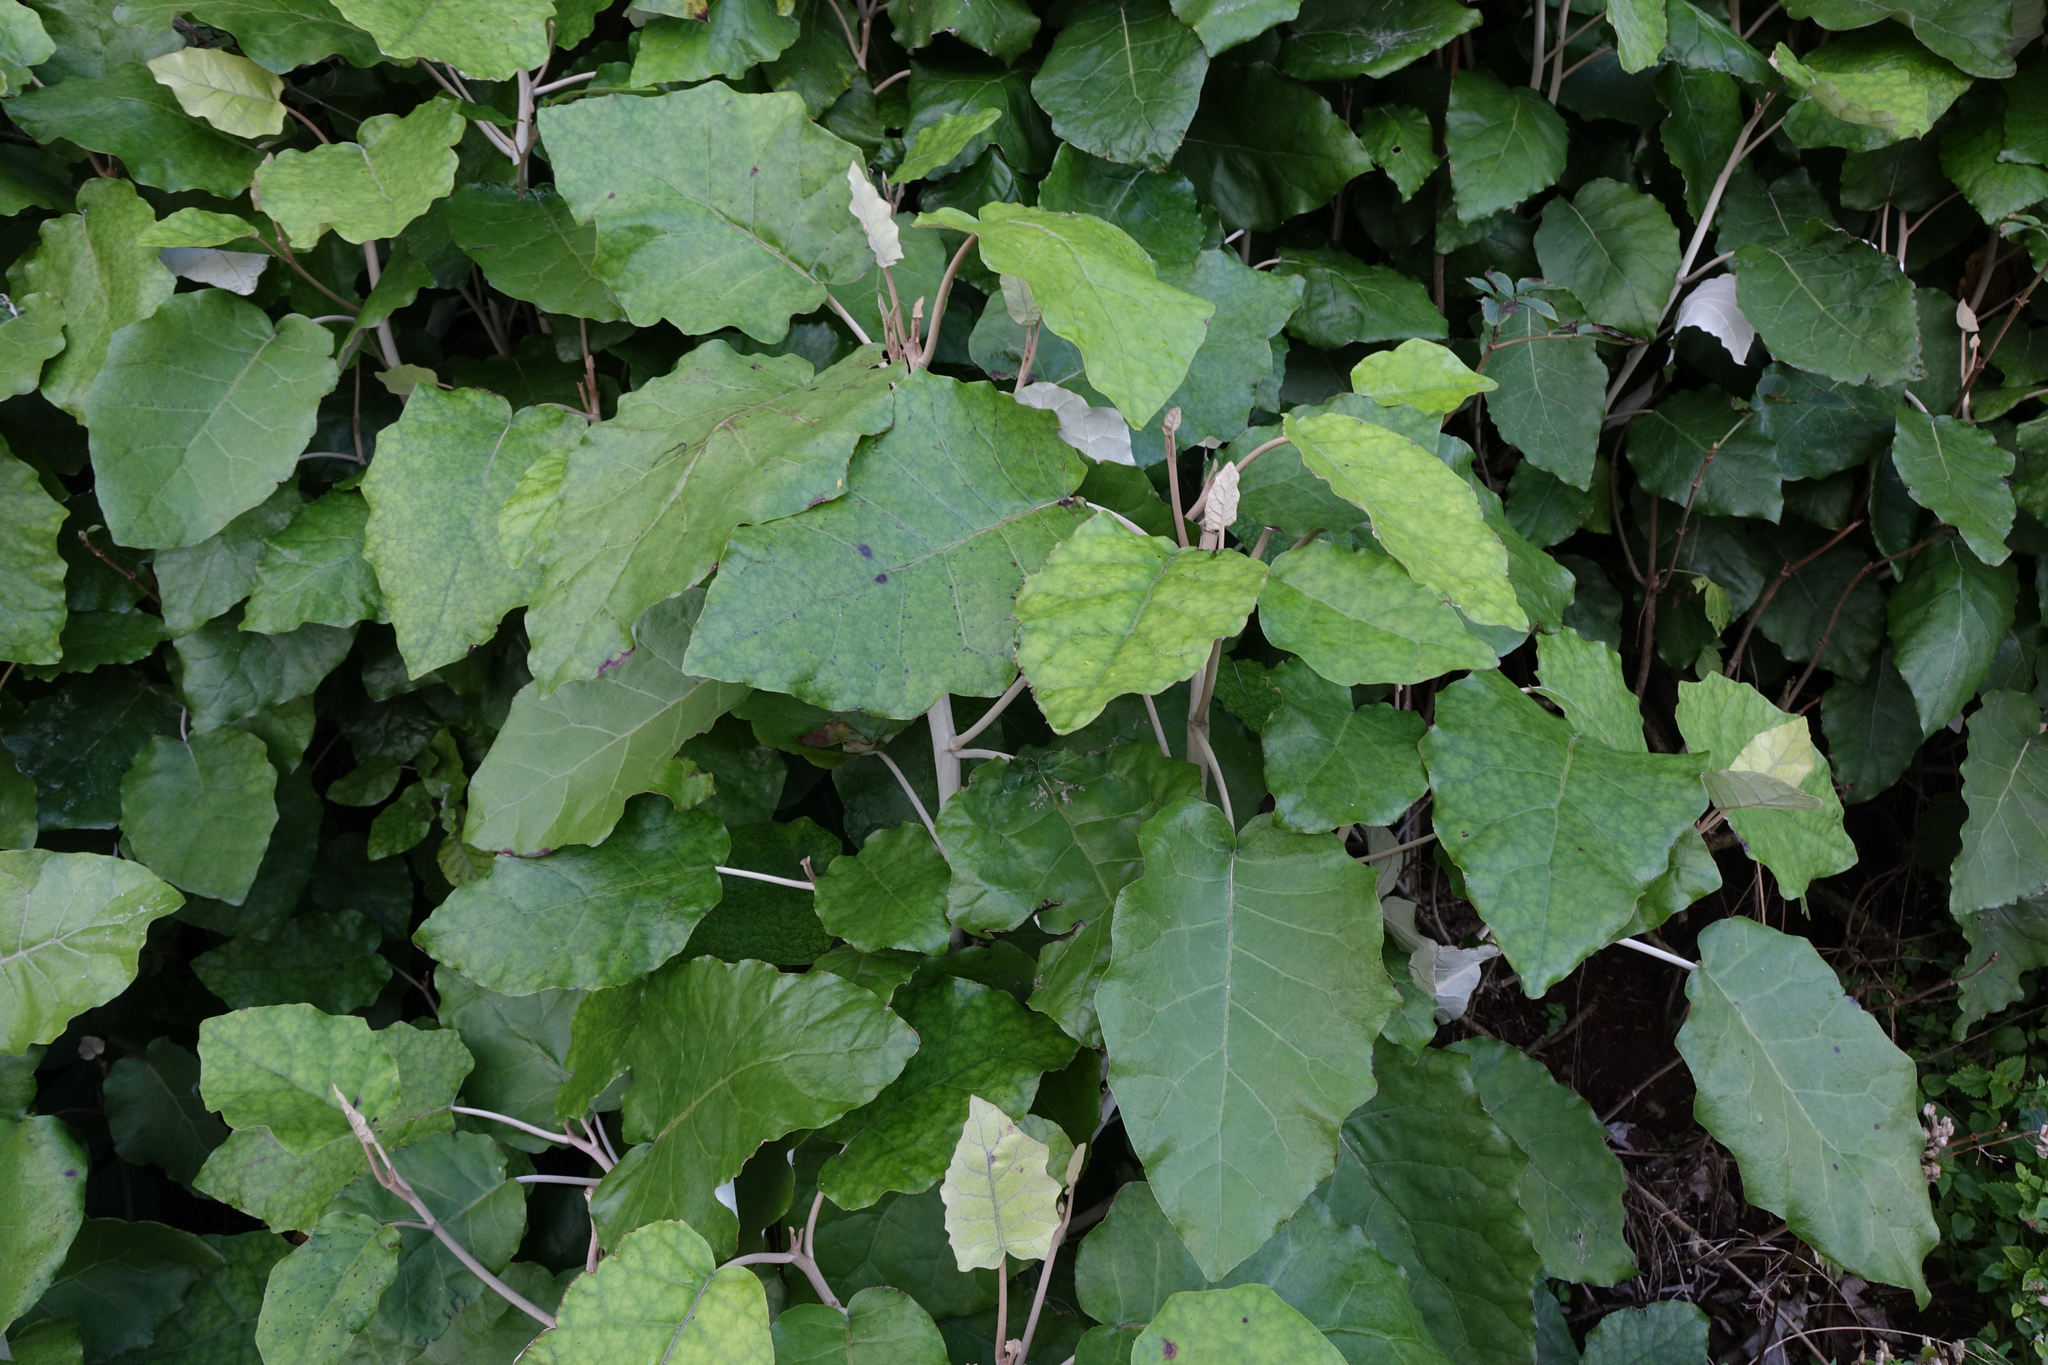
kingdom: Plantae
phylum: Tracheophyta
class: Magnoliopsida
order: Asterales
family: Asteraceae
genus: Brachyglottis
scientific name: Brachyglottis repanda
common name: Hedge ragwort
